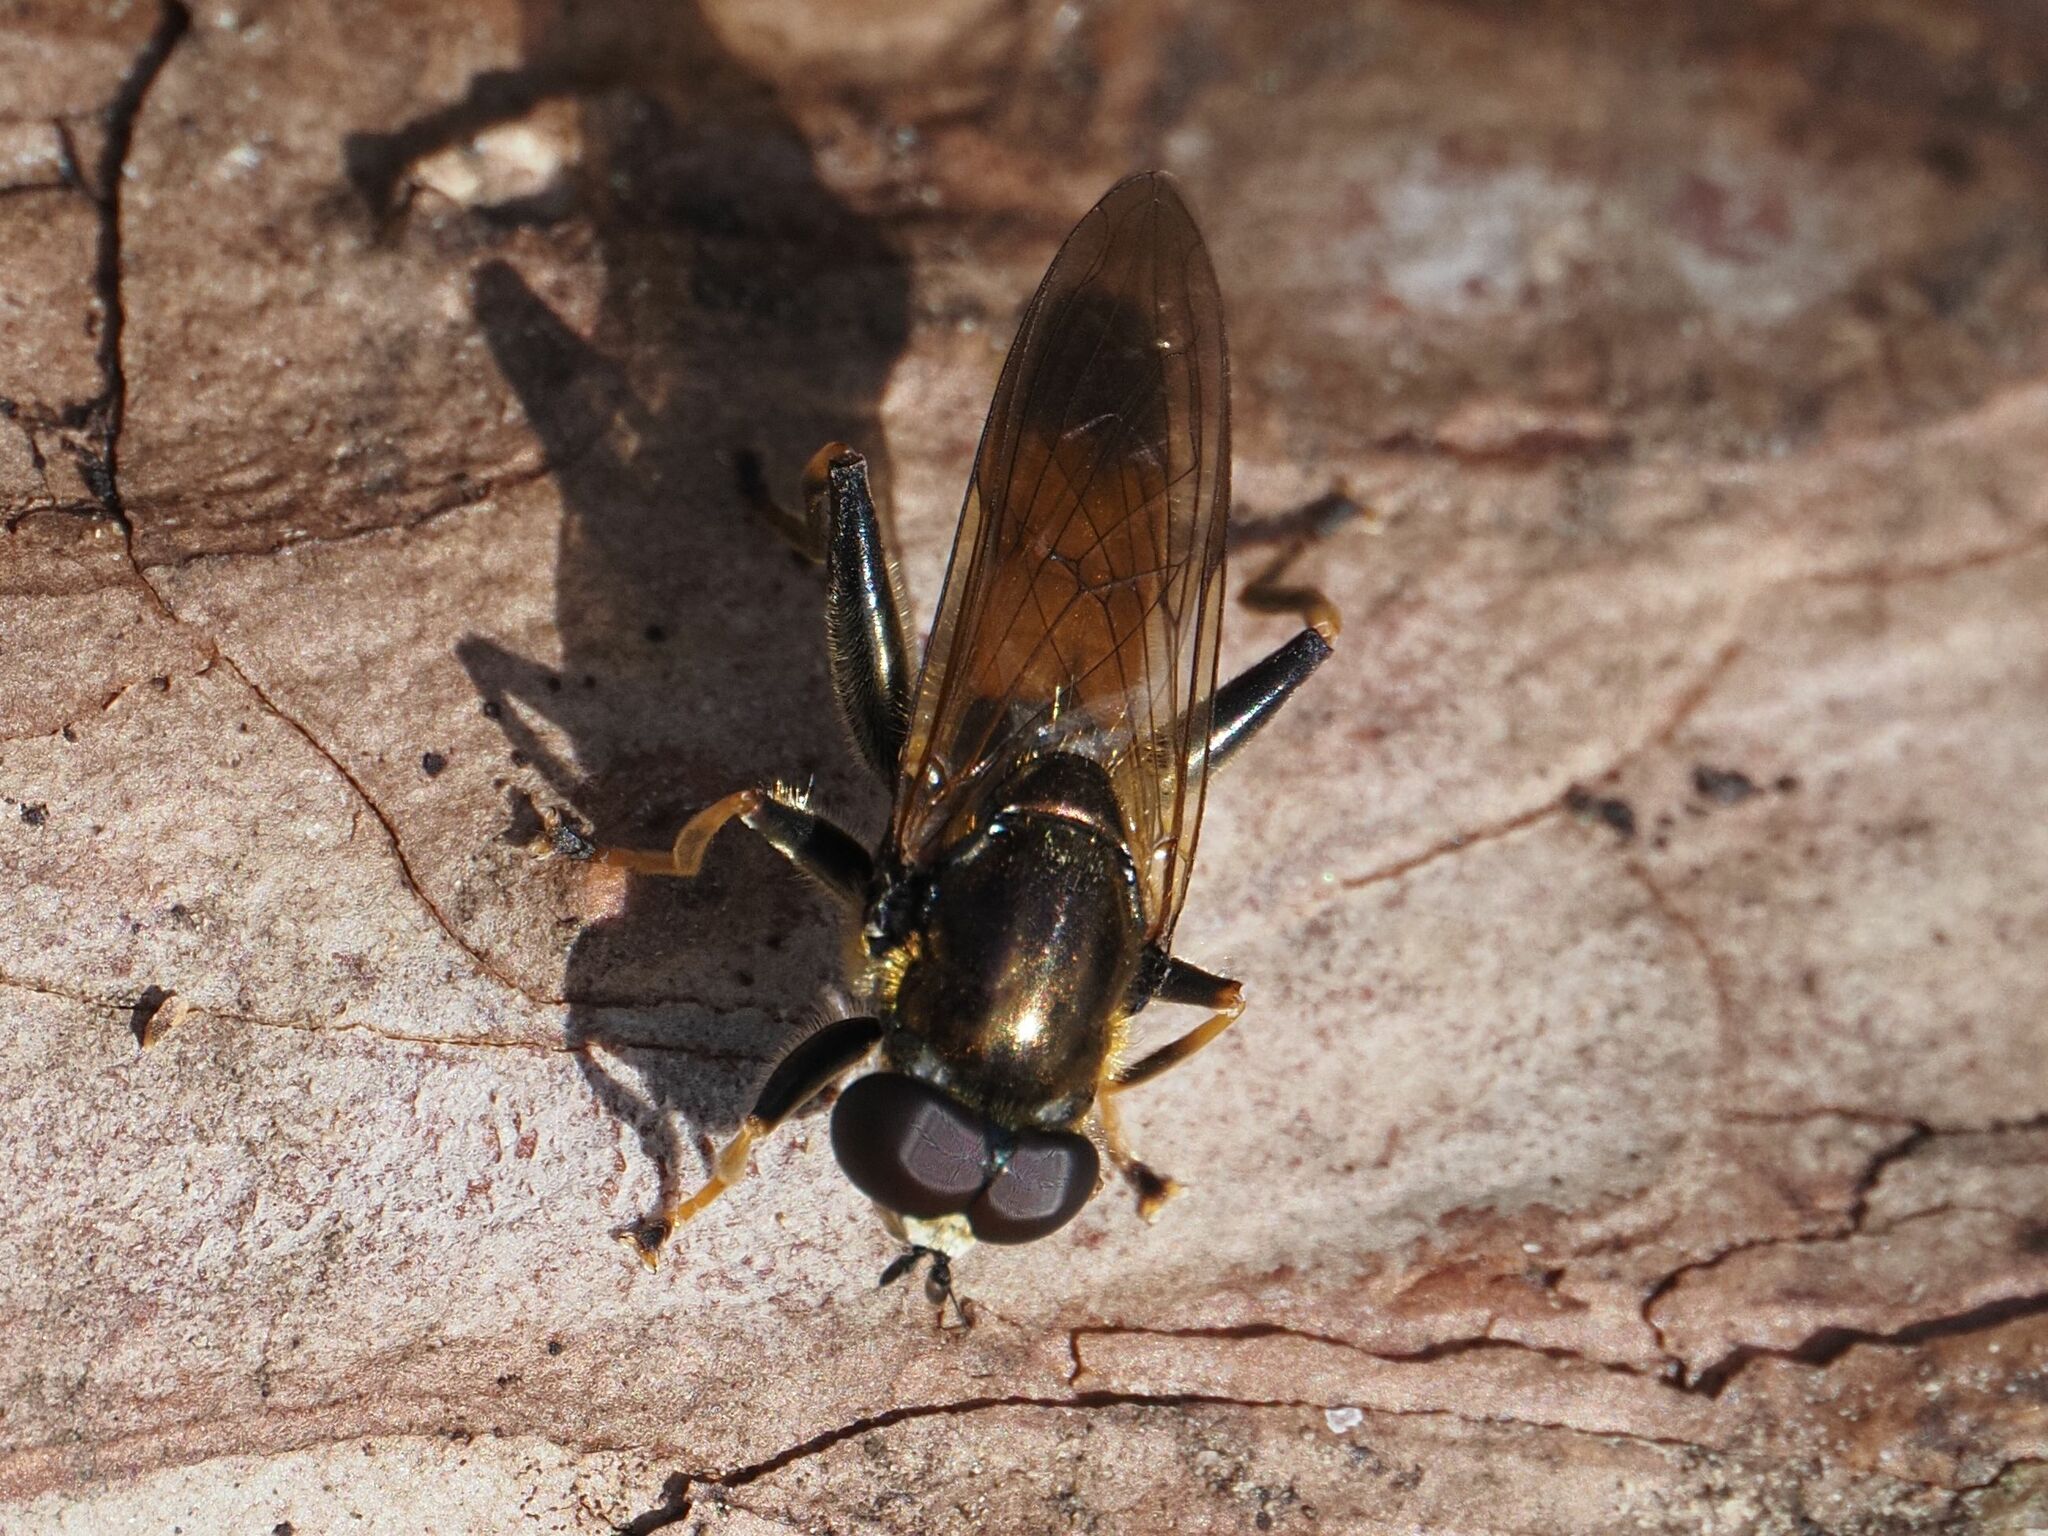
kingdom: Animalia
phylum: Arthropoda
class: Insecta
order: Diptera
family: Syrphidae
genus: Xylota
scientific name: Xylota segnis
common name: Brown-toed forest fly
